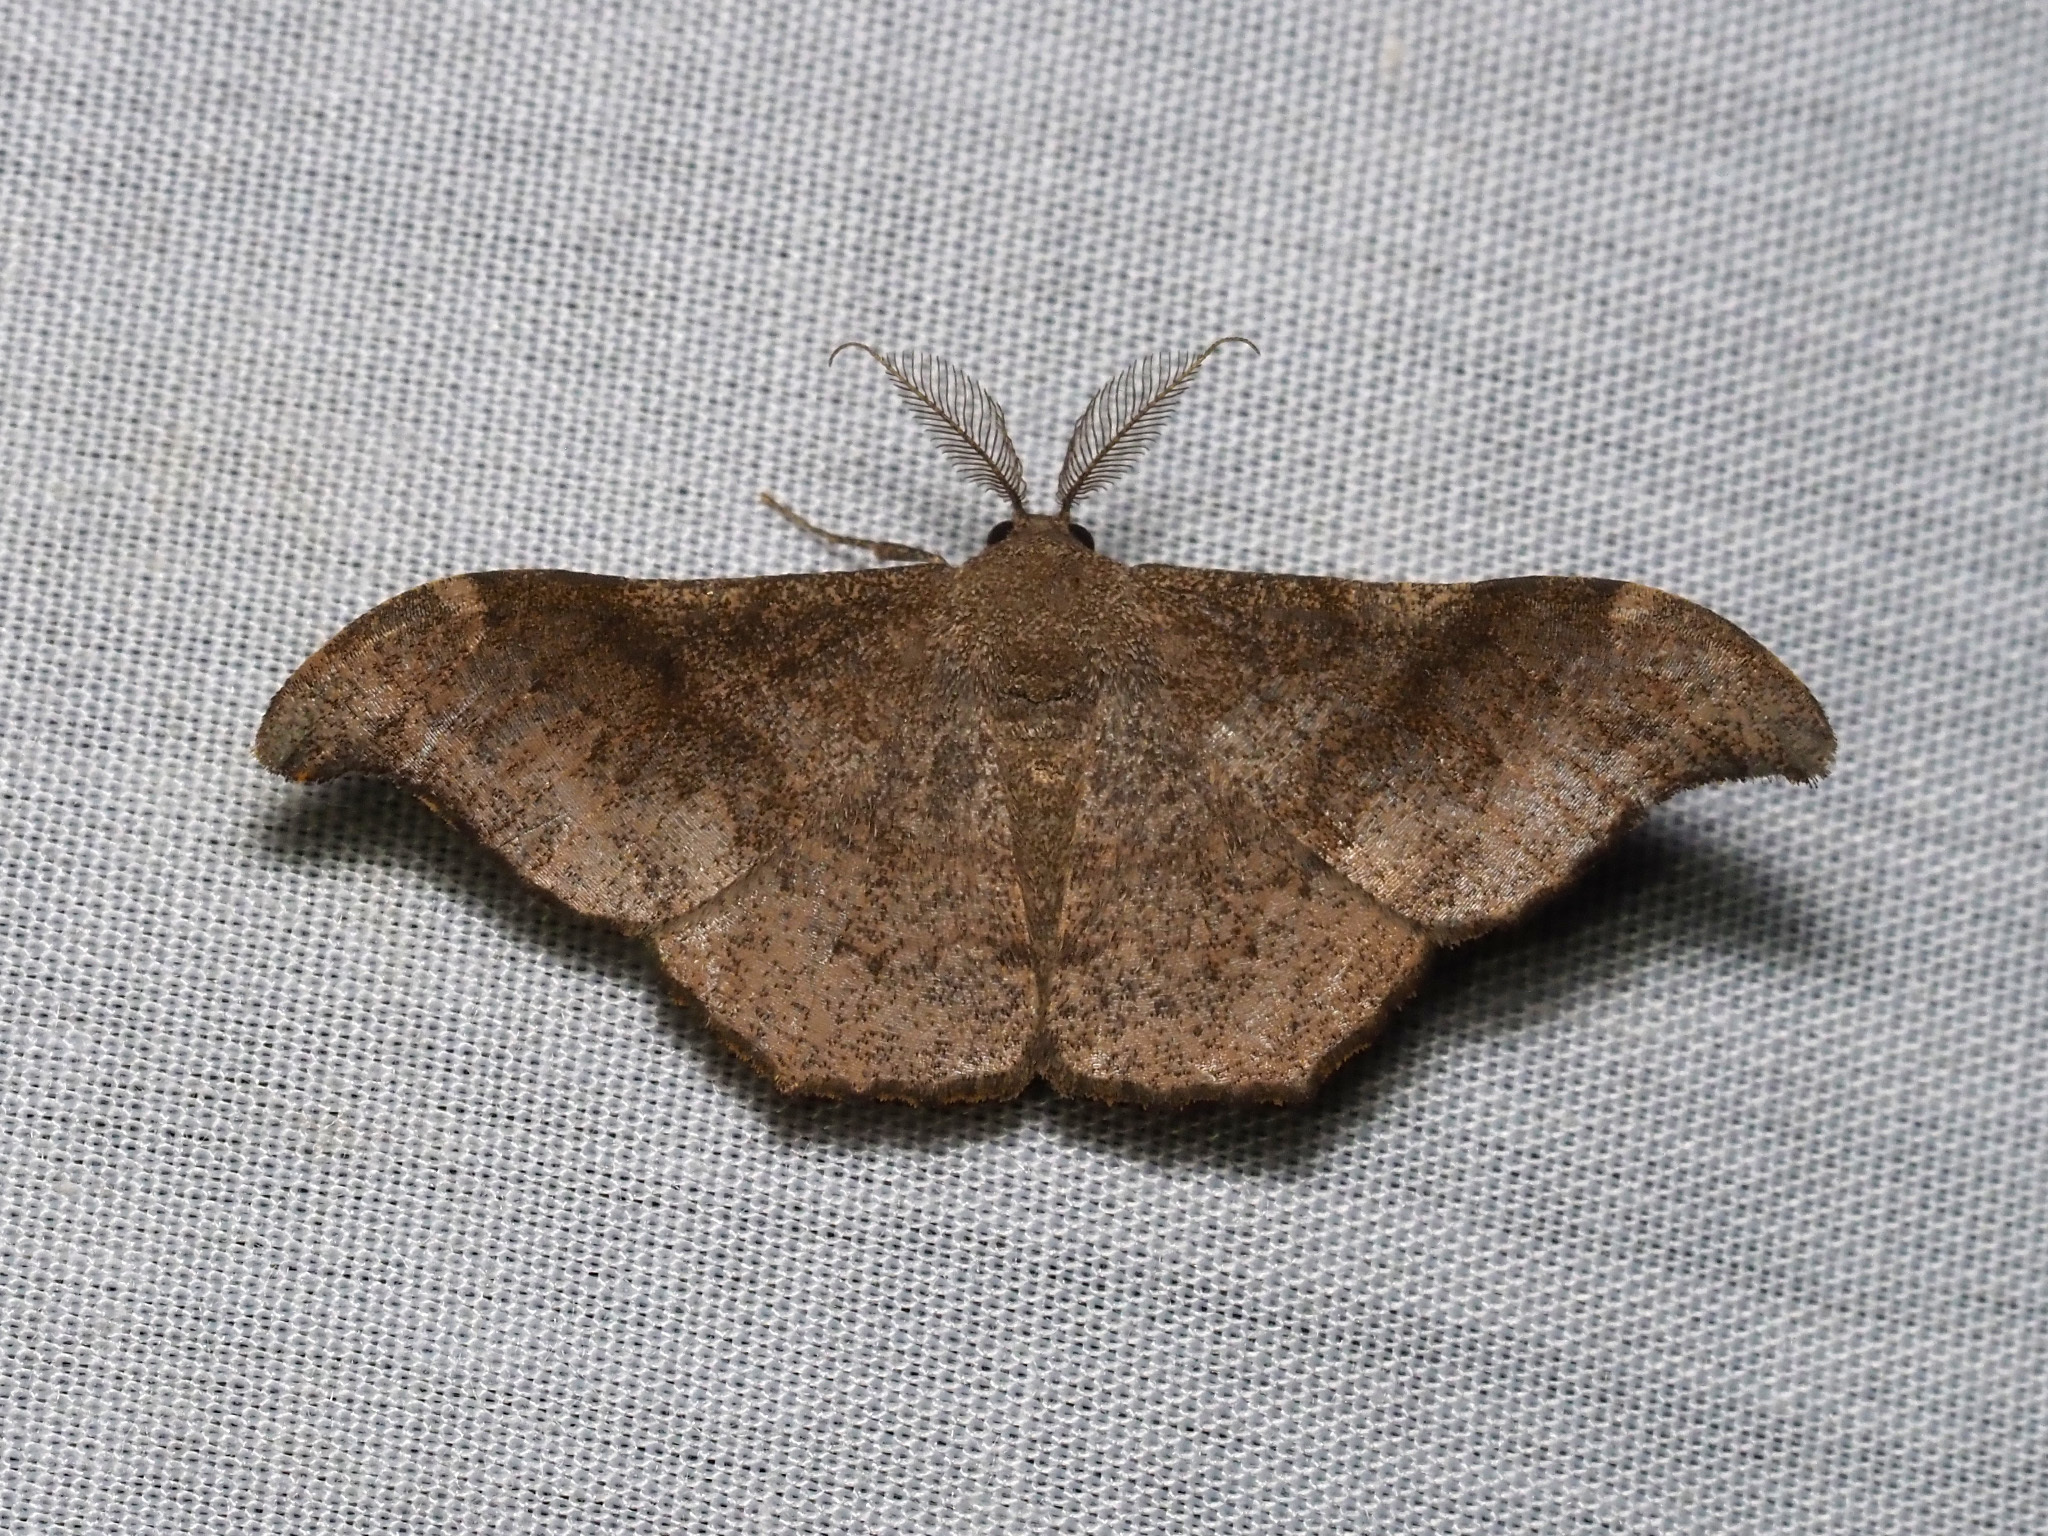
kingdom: Animalia
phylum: Arthropoda
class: Insecta
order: Lepidoptera
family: Geometridae
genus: Hyposidra
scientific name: Hyposidra talaca
